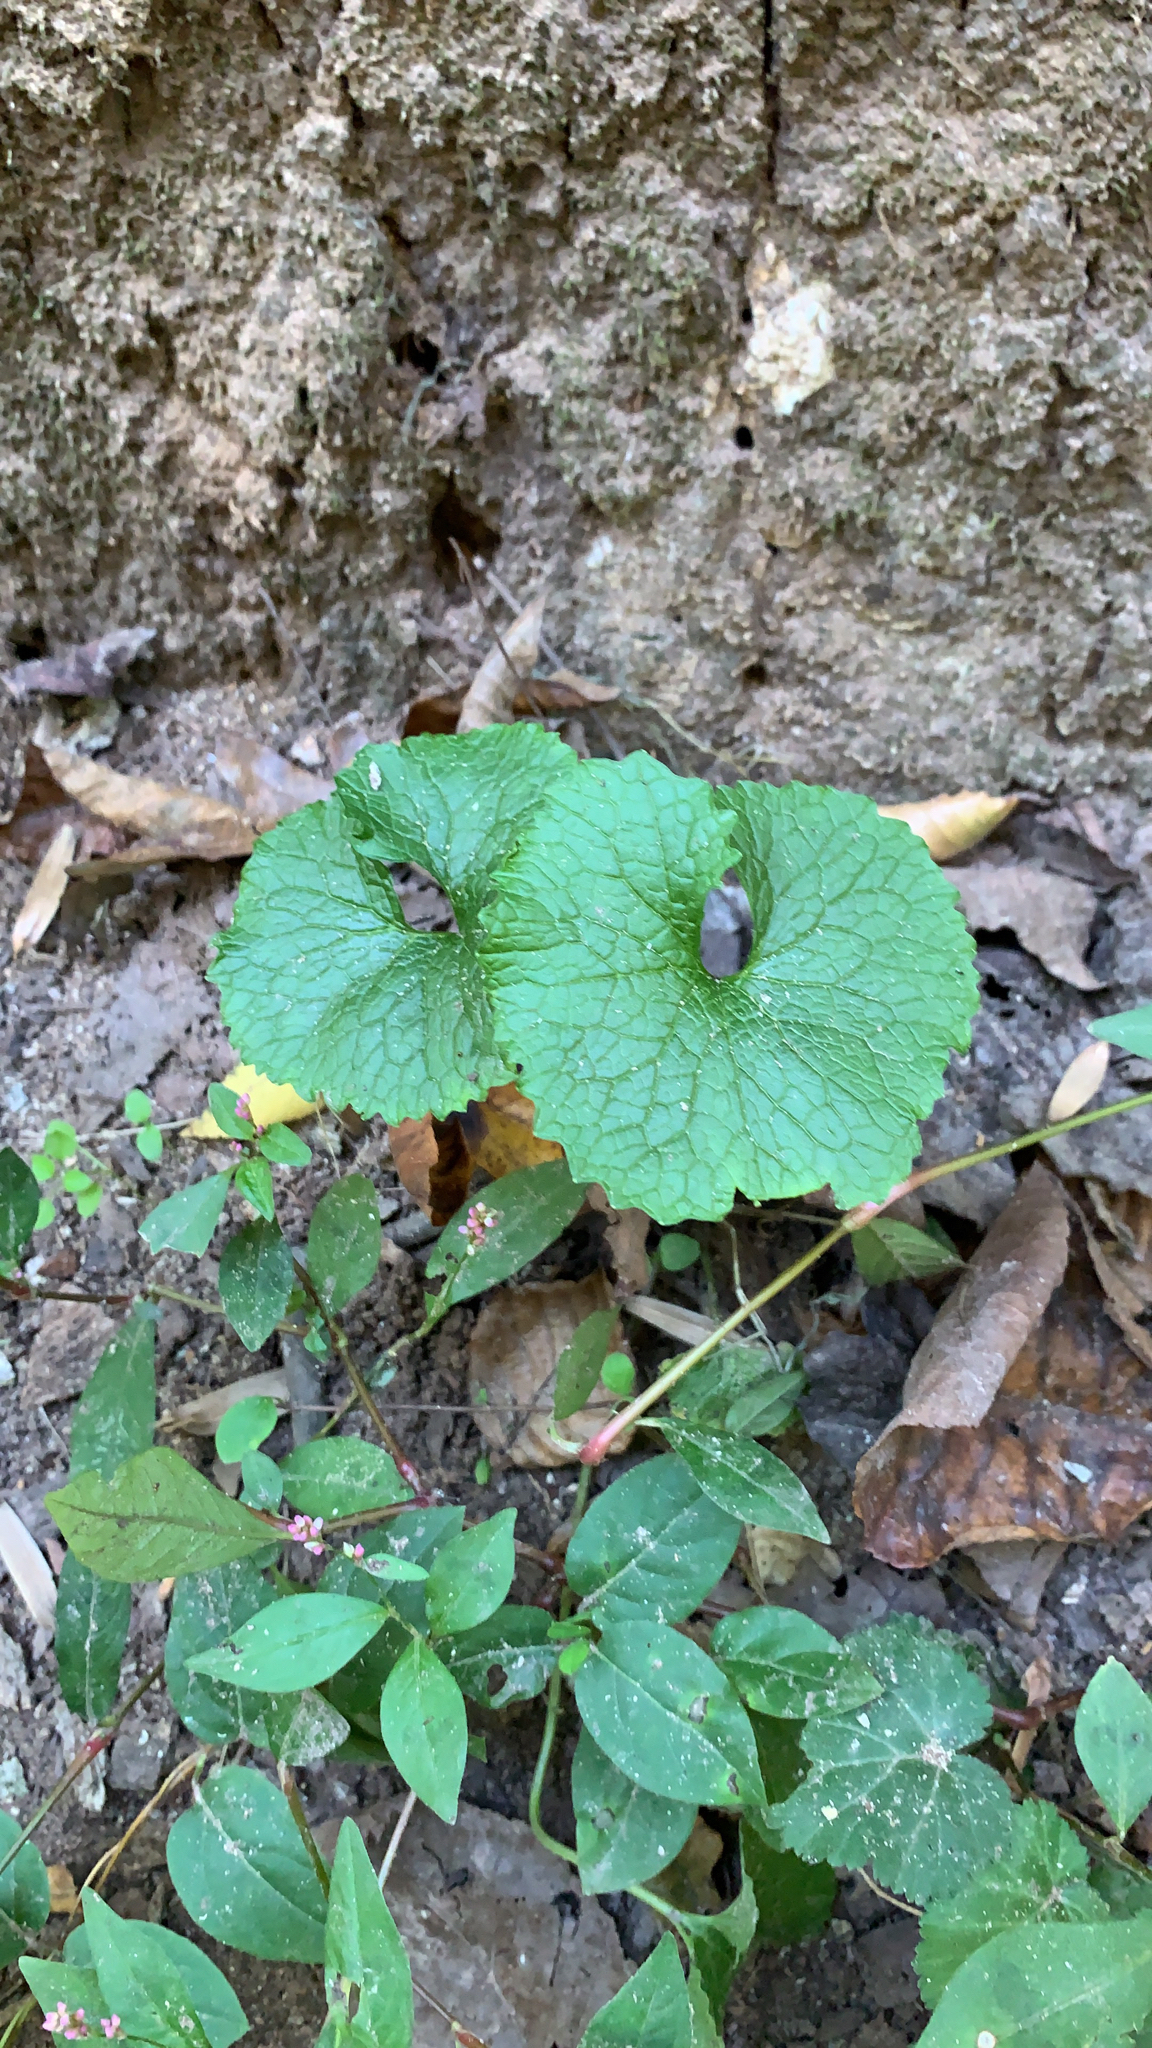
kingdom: Plantae
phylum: Tracheophyta
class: Magnoliopsida
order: Brassicales
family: Brassicaceae
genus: Alliaria
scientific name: Alliaria petiolata
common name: Garlic mustard
